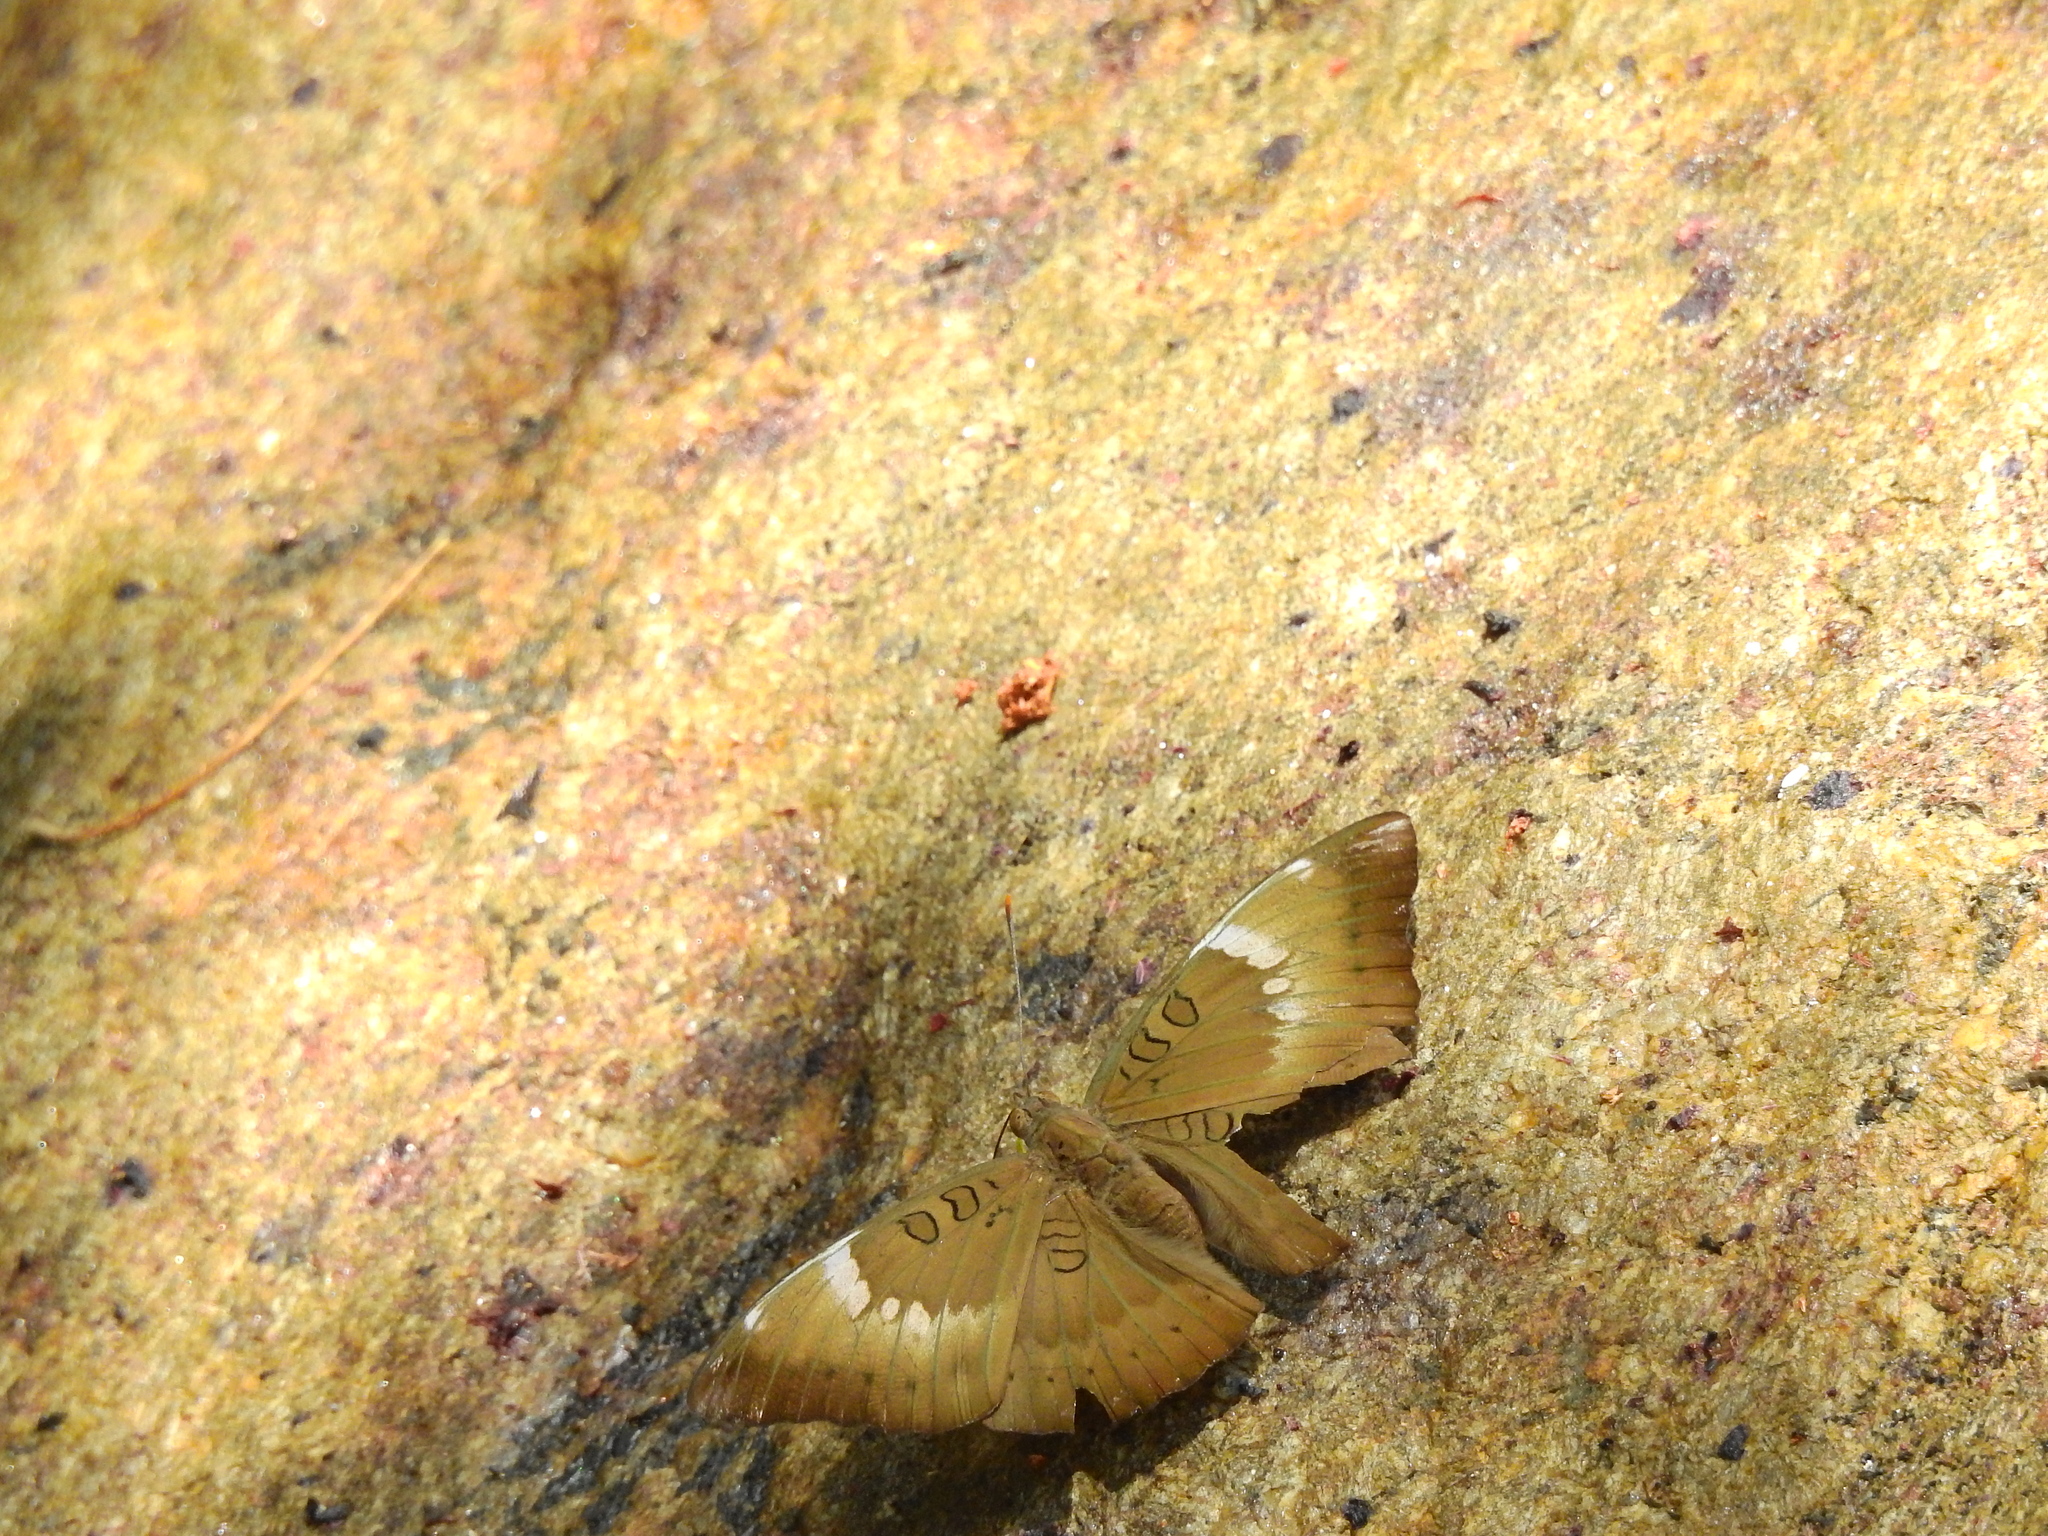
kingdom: Animalia
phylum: Arthropoda
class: Insecta
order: Lepidoptera
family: Nymphalidae
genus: Euthalia
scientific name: Euthalia aconthea
